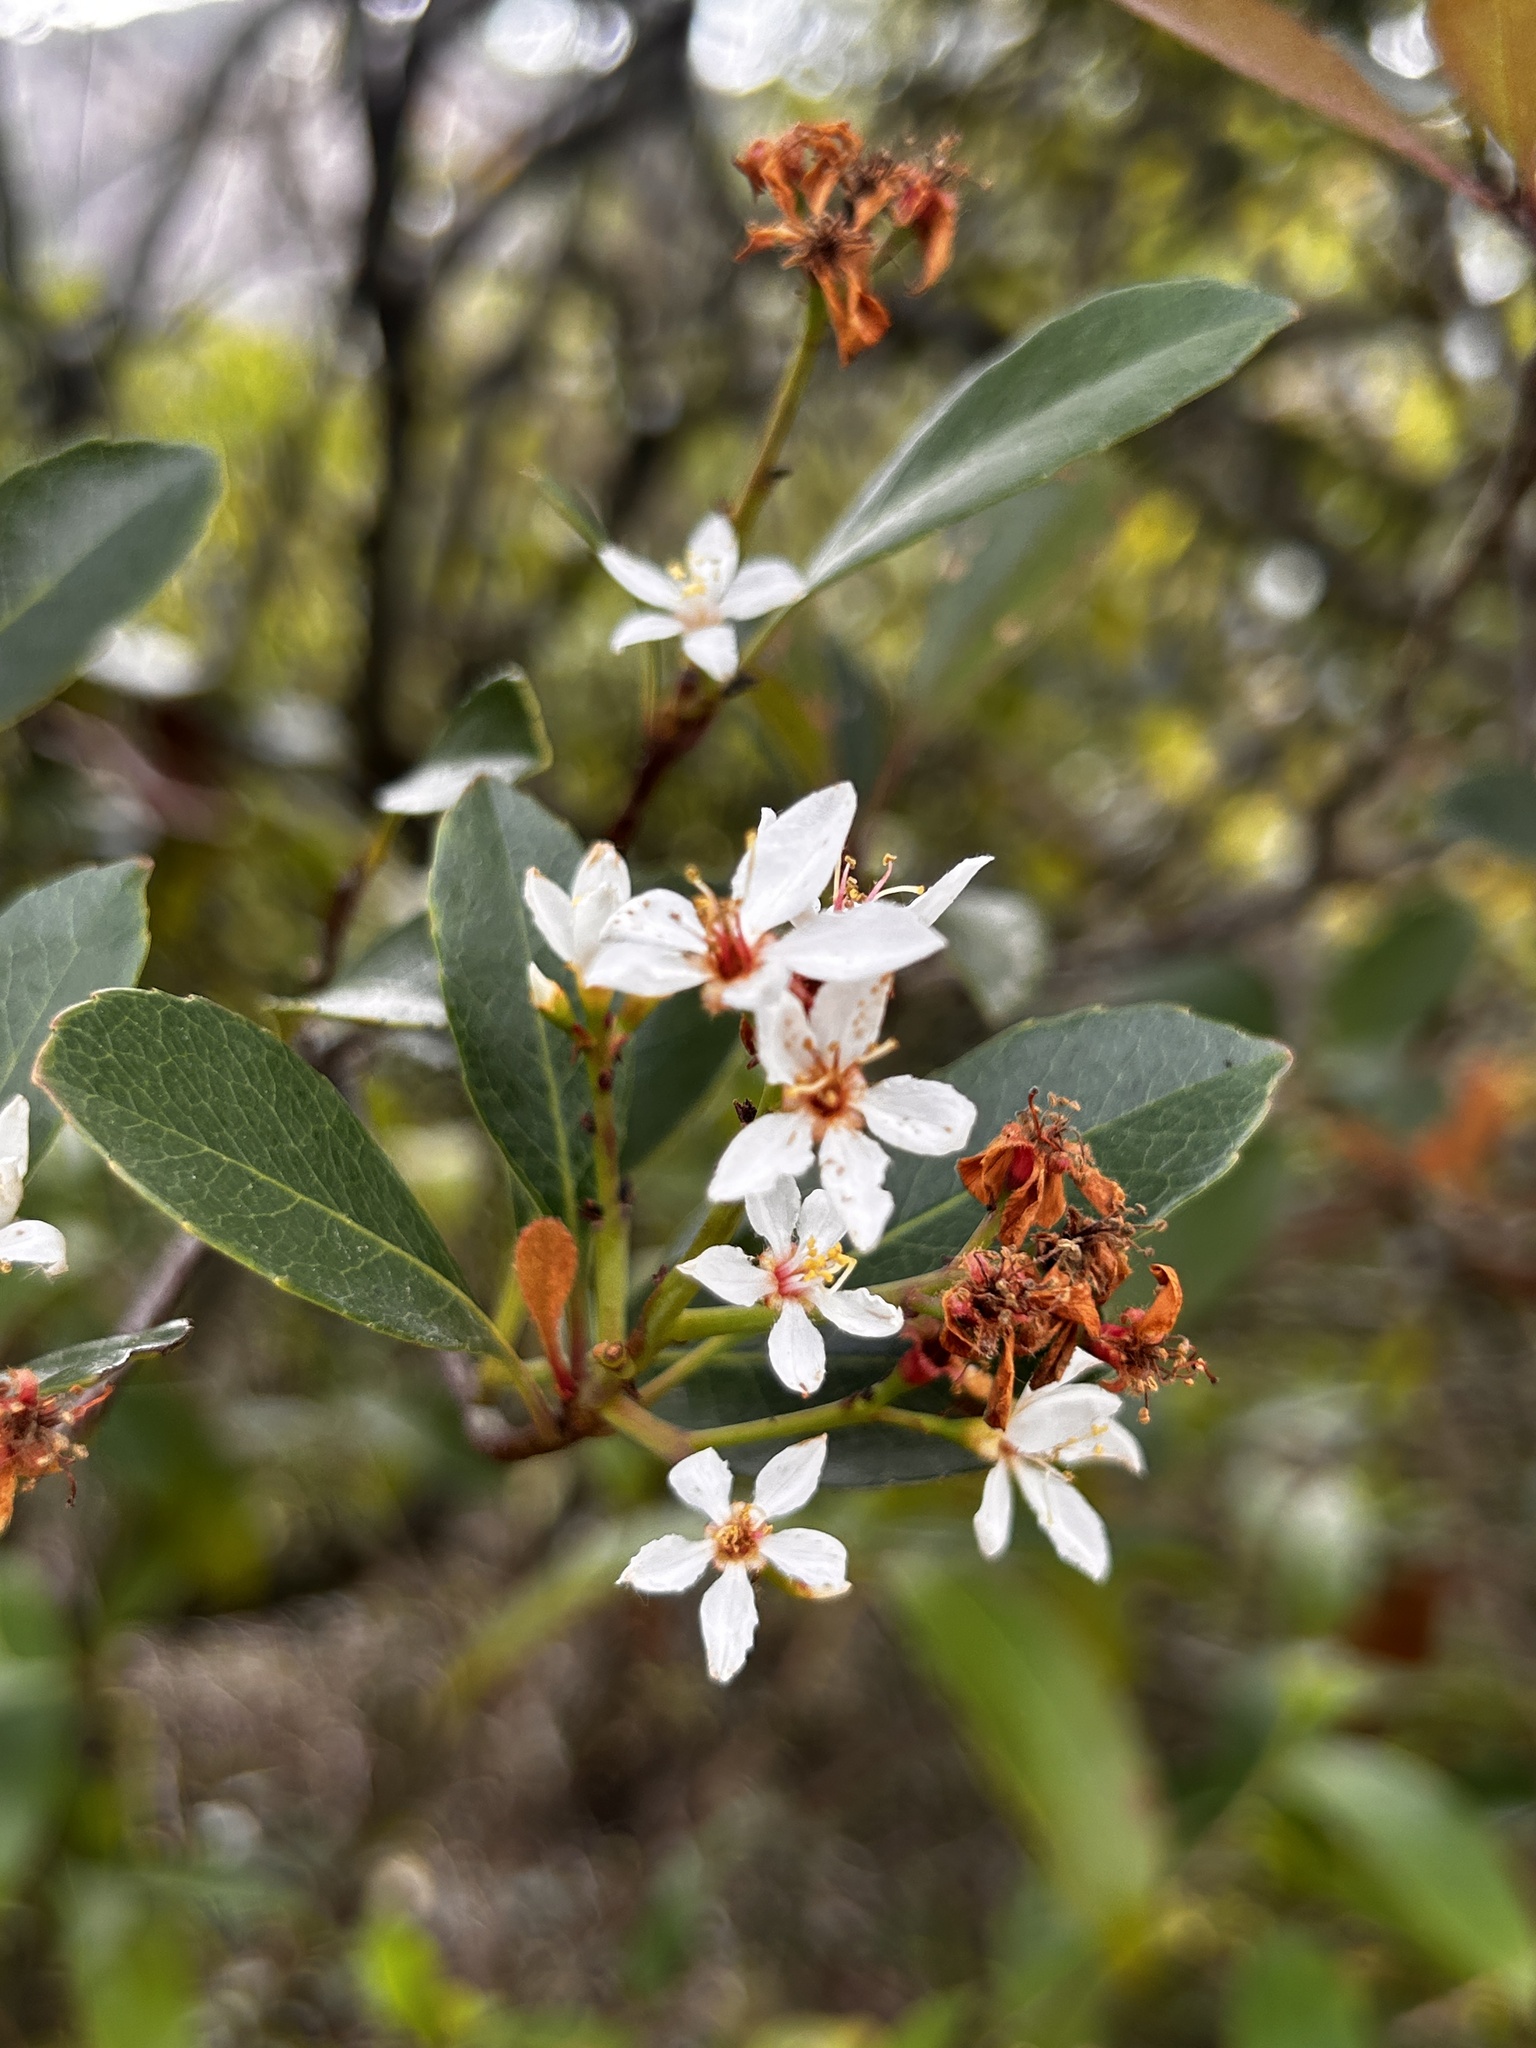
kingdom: Plantae
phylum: Tracheophyta
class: Magnoliopsida
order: Rosales
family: Rosaceae
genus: Rhaphiolepis
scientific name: Rhaphiolepis indica
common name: India-hawthorn
